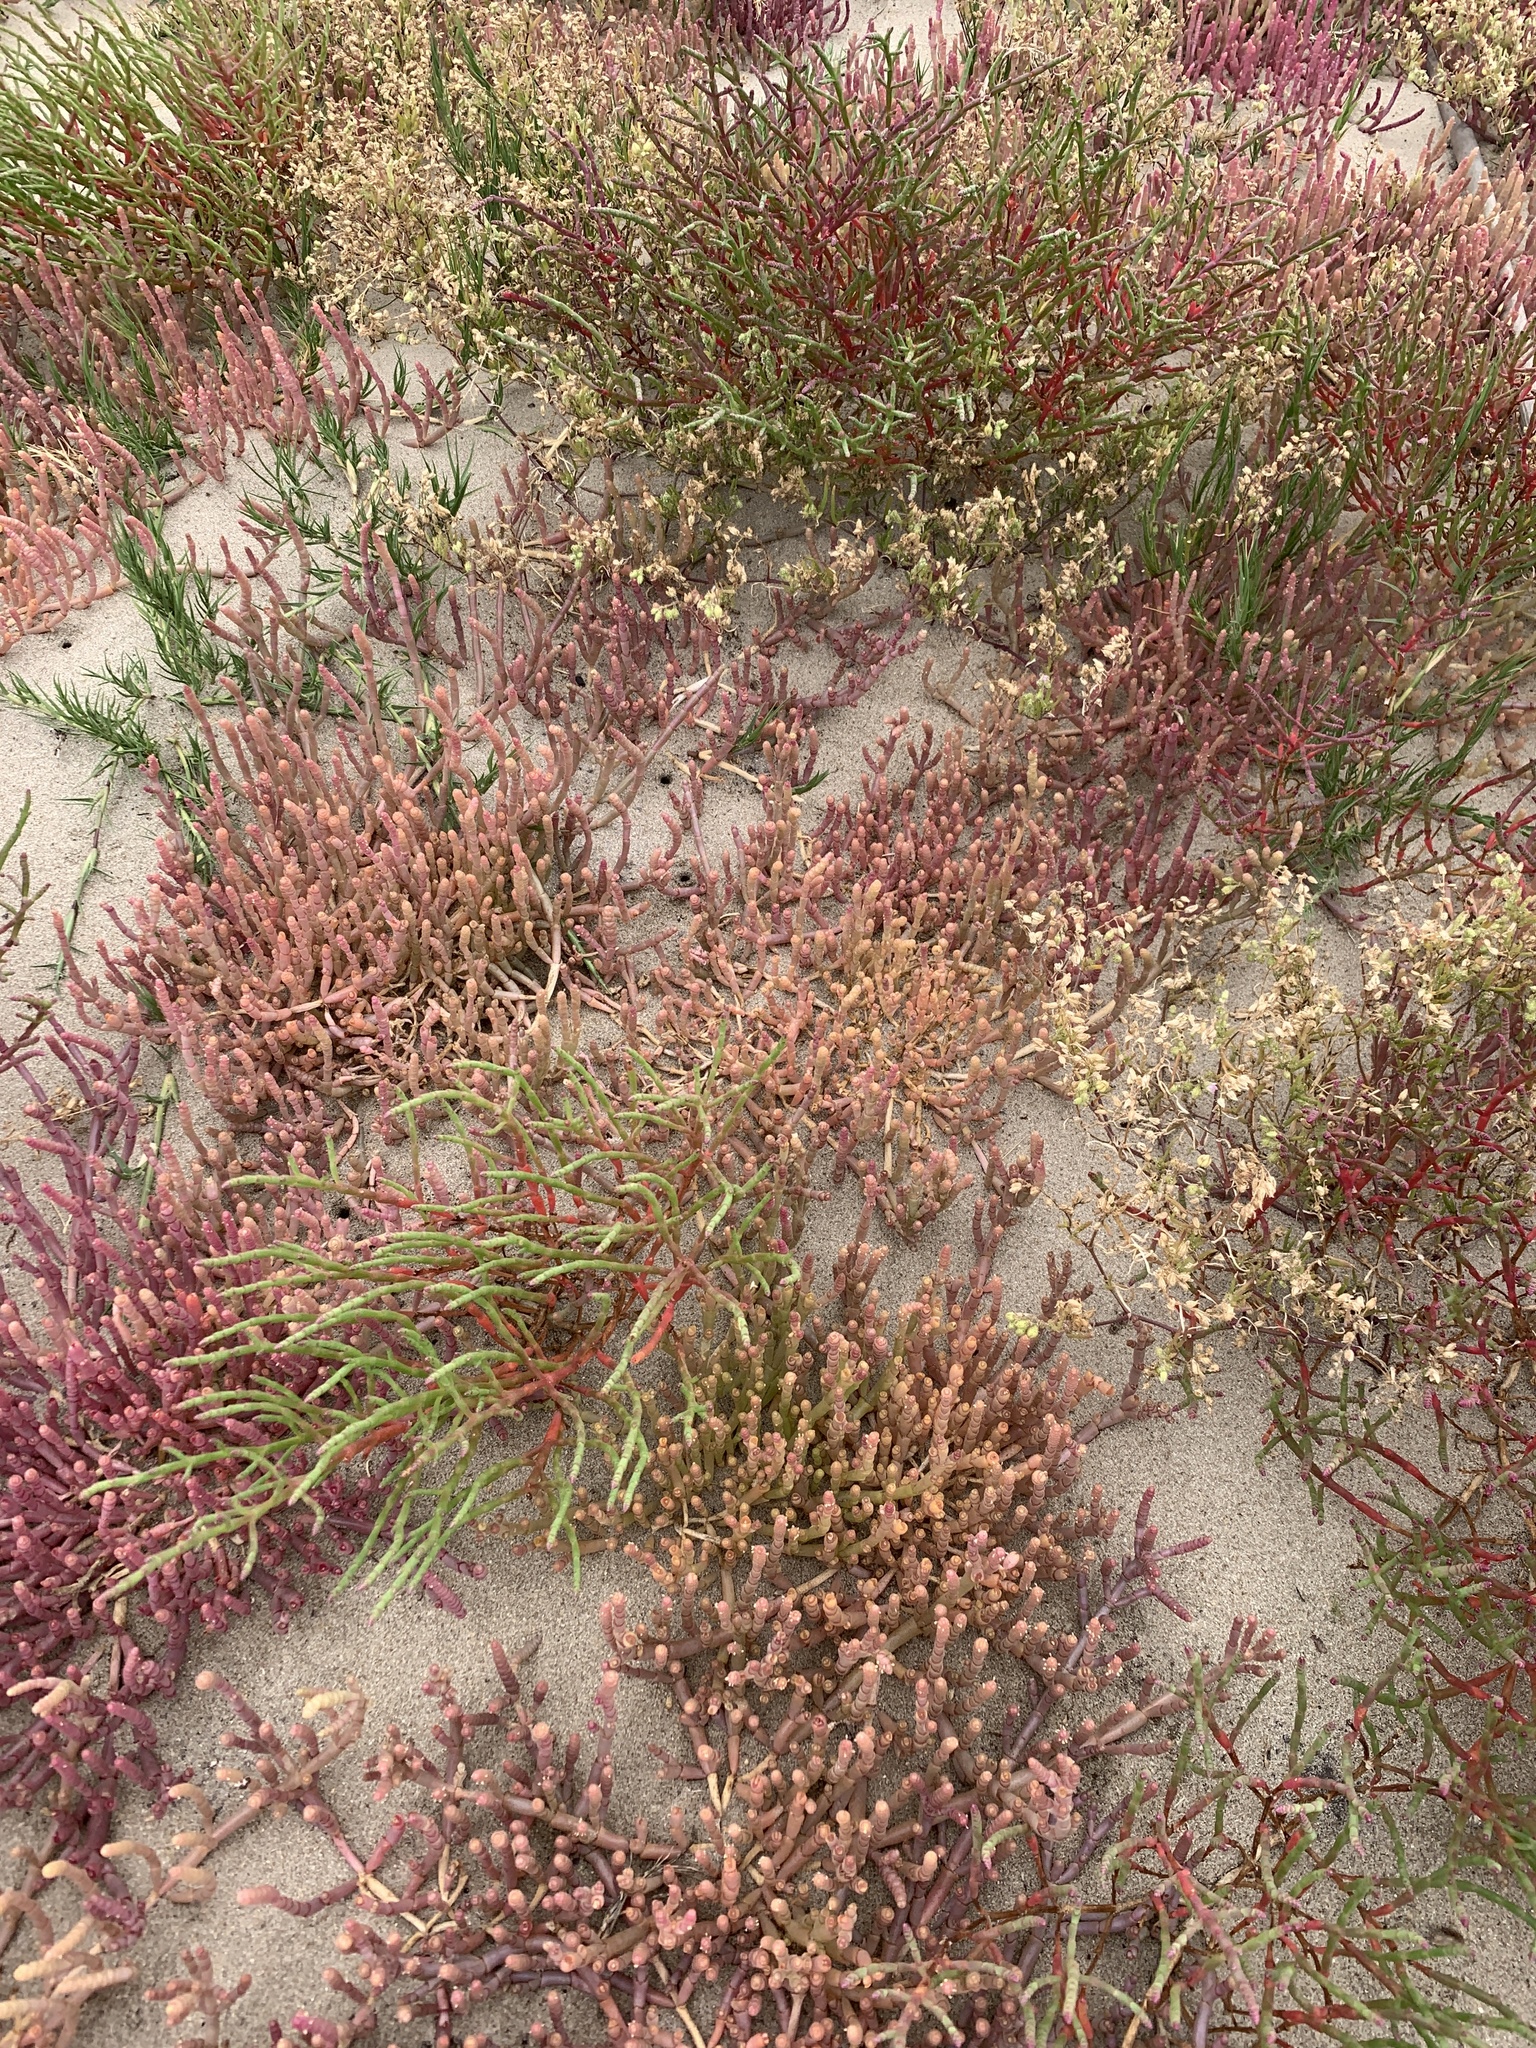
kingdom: Plantae
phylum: Tracheophyta
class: Magnoliopsida
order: Caryophyllales
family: Amaranthaceae
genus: Salicornia
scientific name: Salicornia meyeriana
